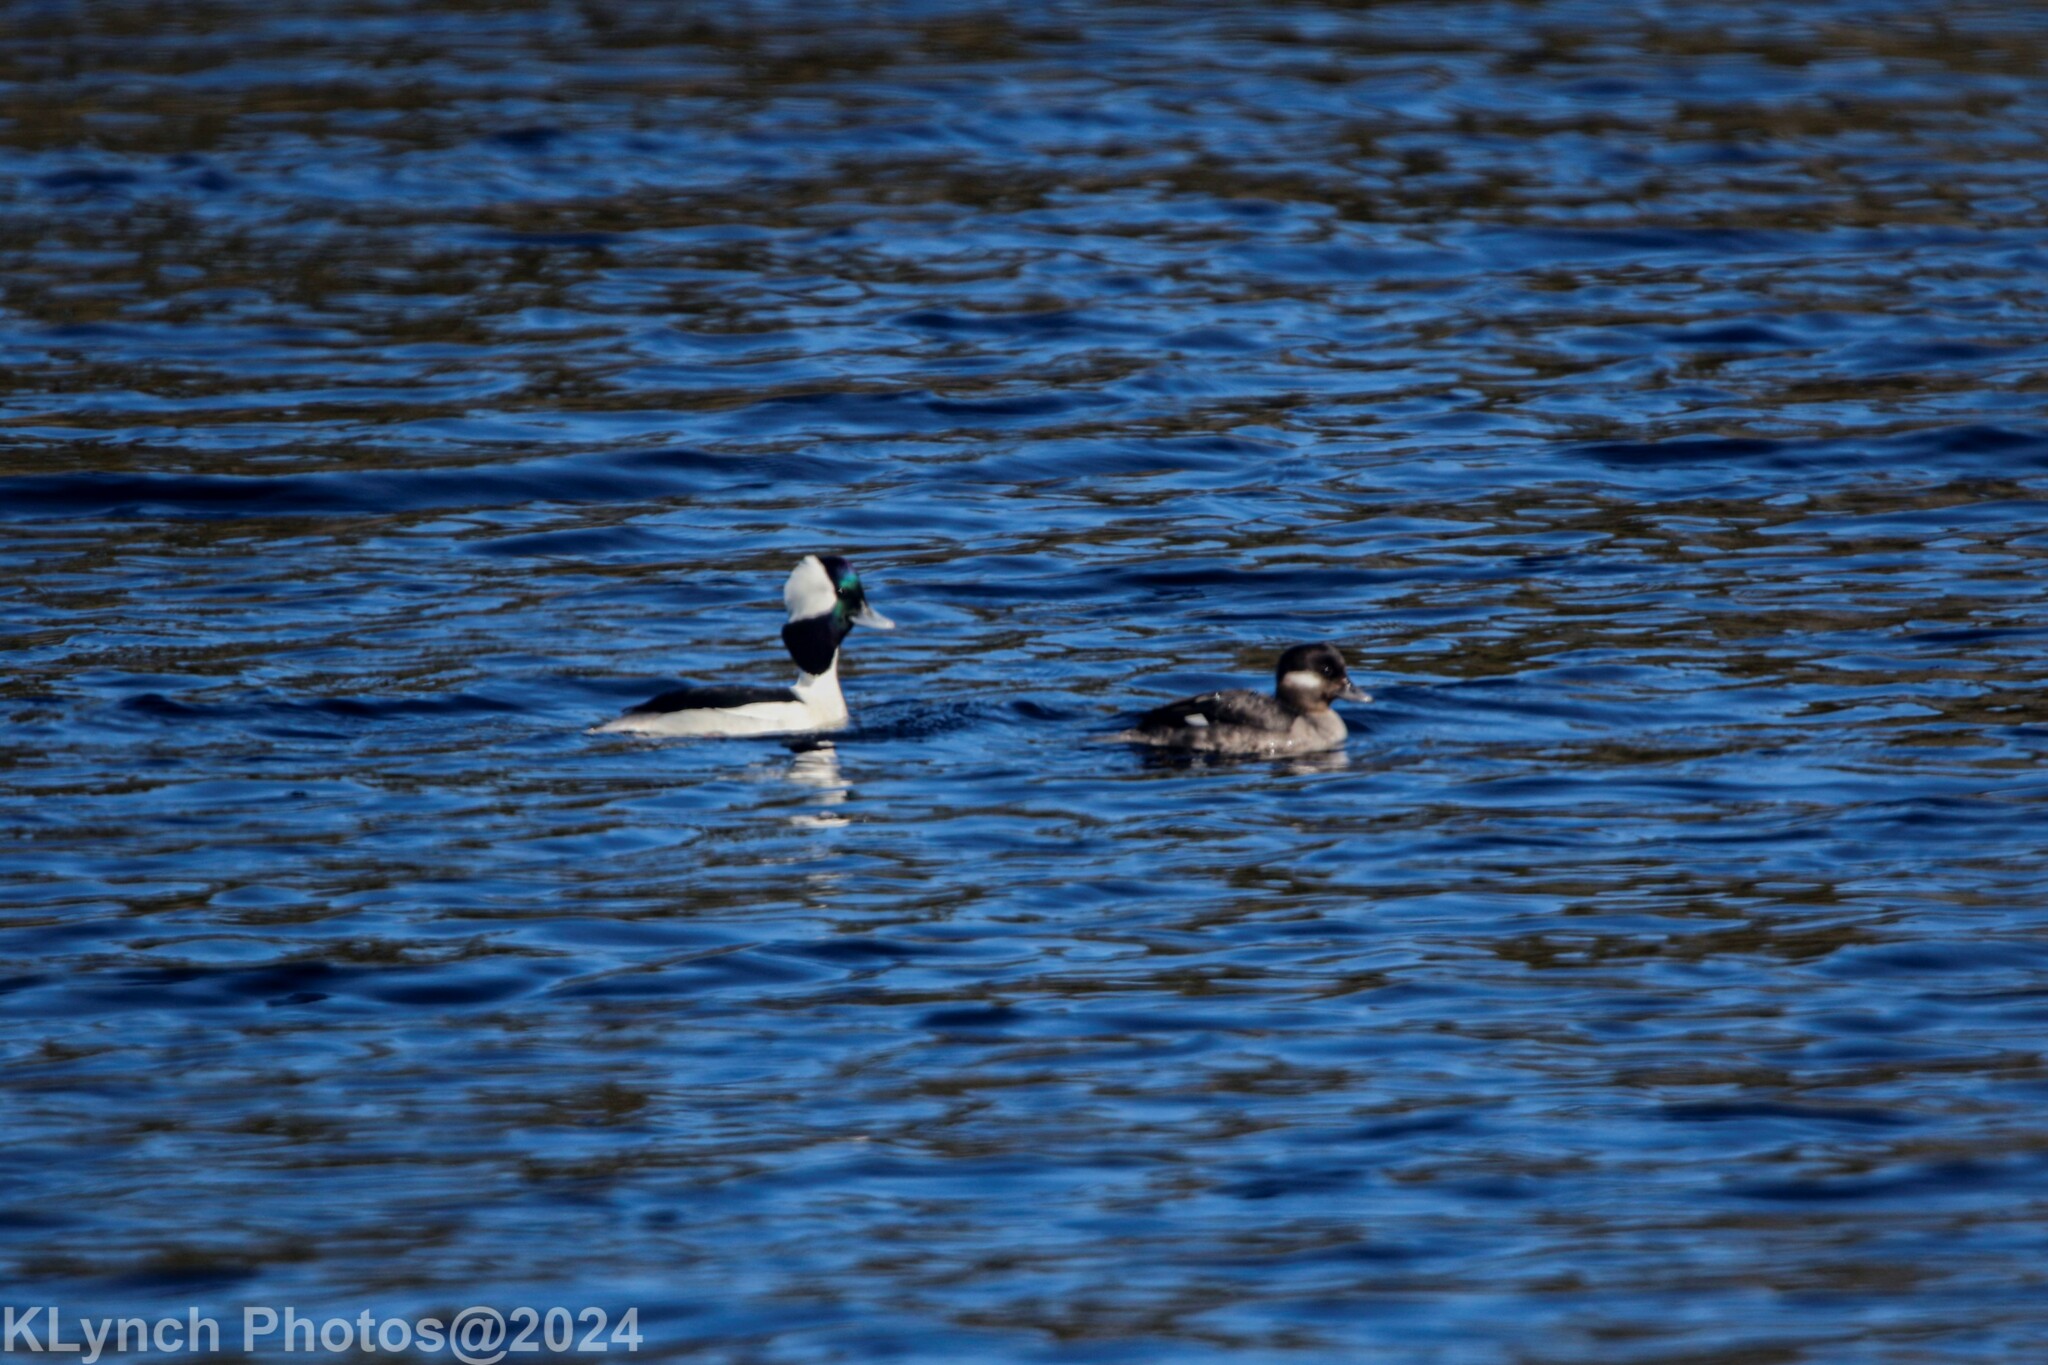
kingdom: Animalia
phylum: Chordata
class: Aves
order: Anseriformes
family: Anatidae
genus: Bucephala
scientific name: Bucephala albeola
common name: Bufflehead
